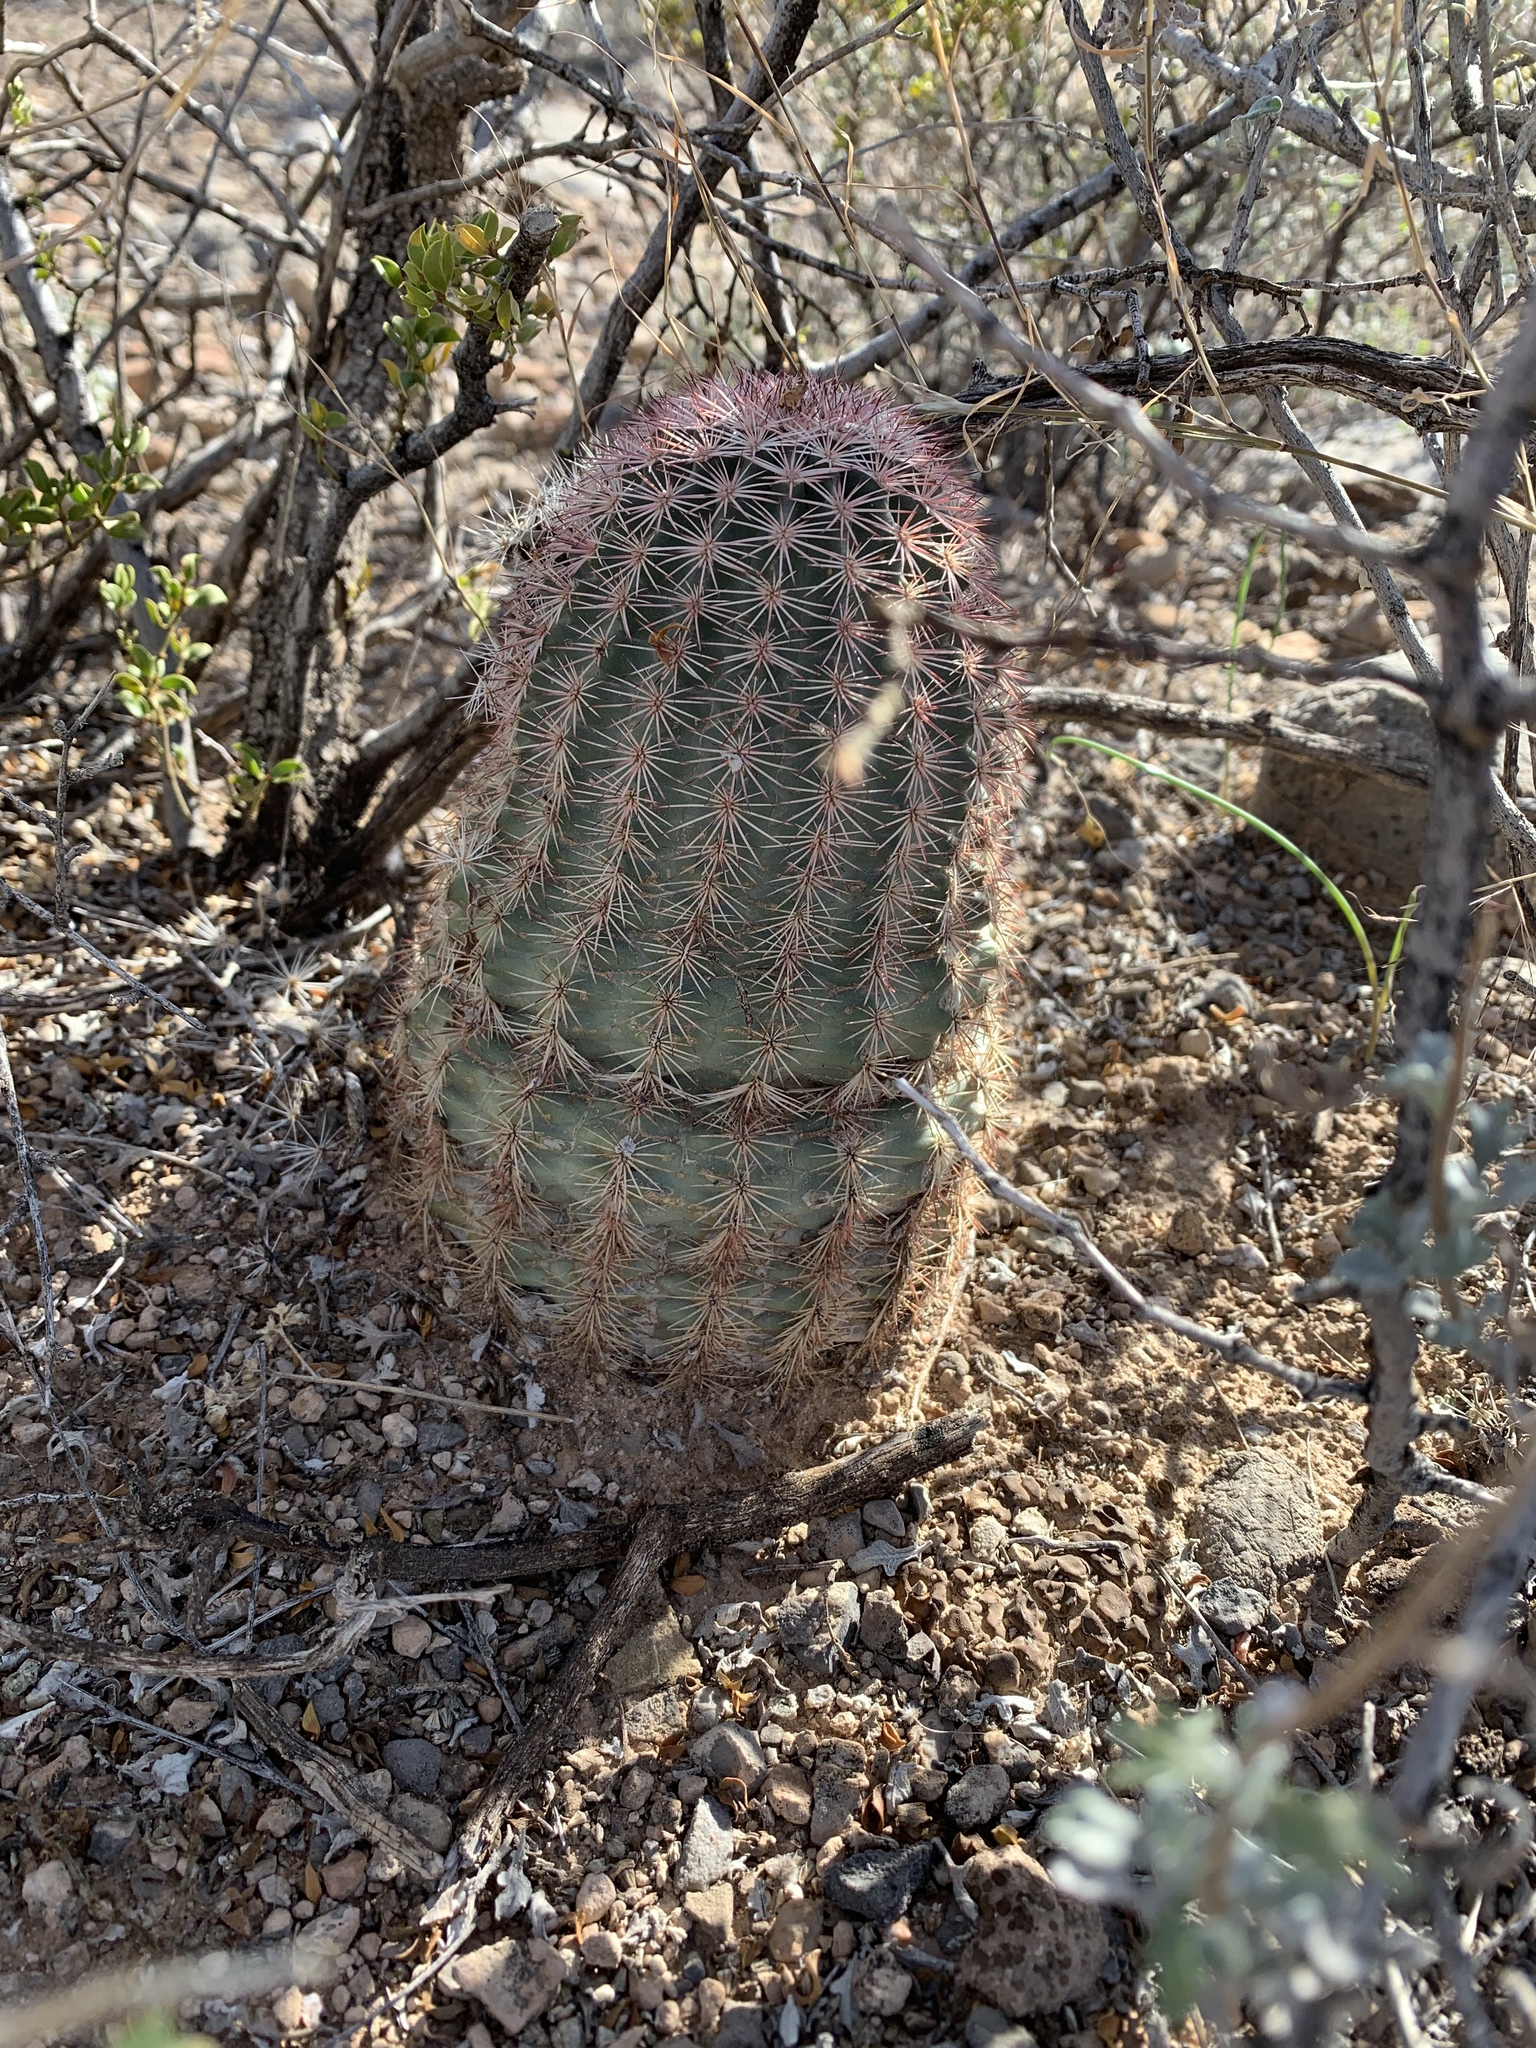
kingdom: Plantae
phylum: Tracheophyta
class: Magnoliopsida
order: Caryophyllales
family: Cactaceae
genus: Echinocereus
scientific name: Echinocereus dasyacanthus
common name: Spiny hedgehog cactus
